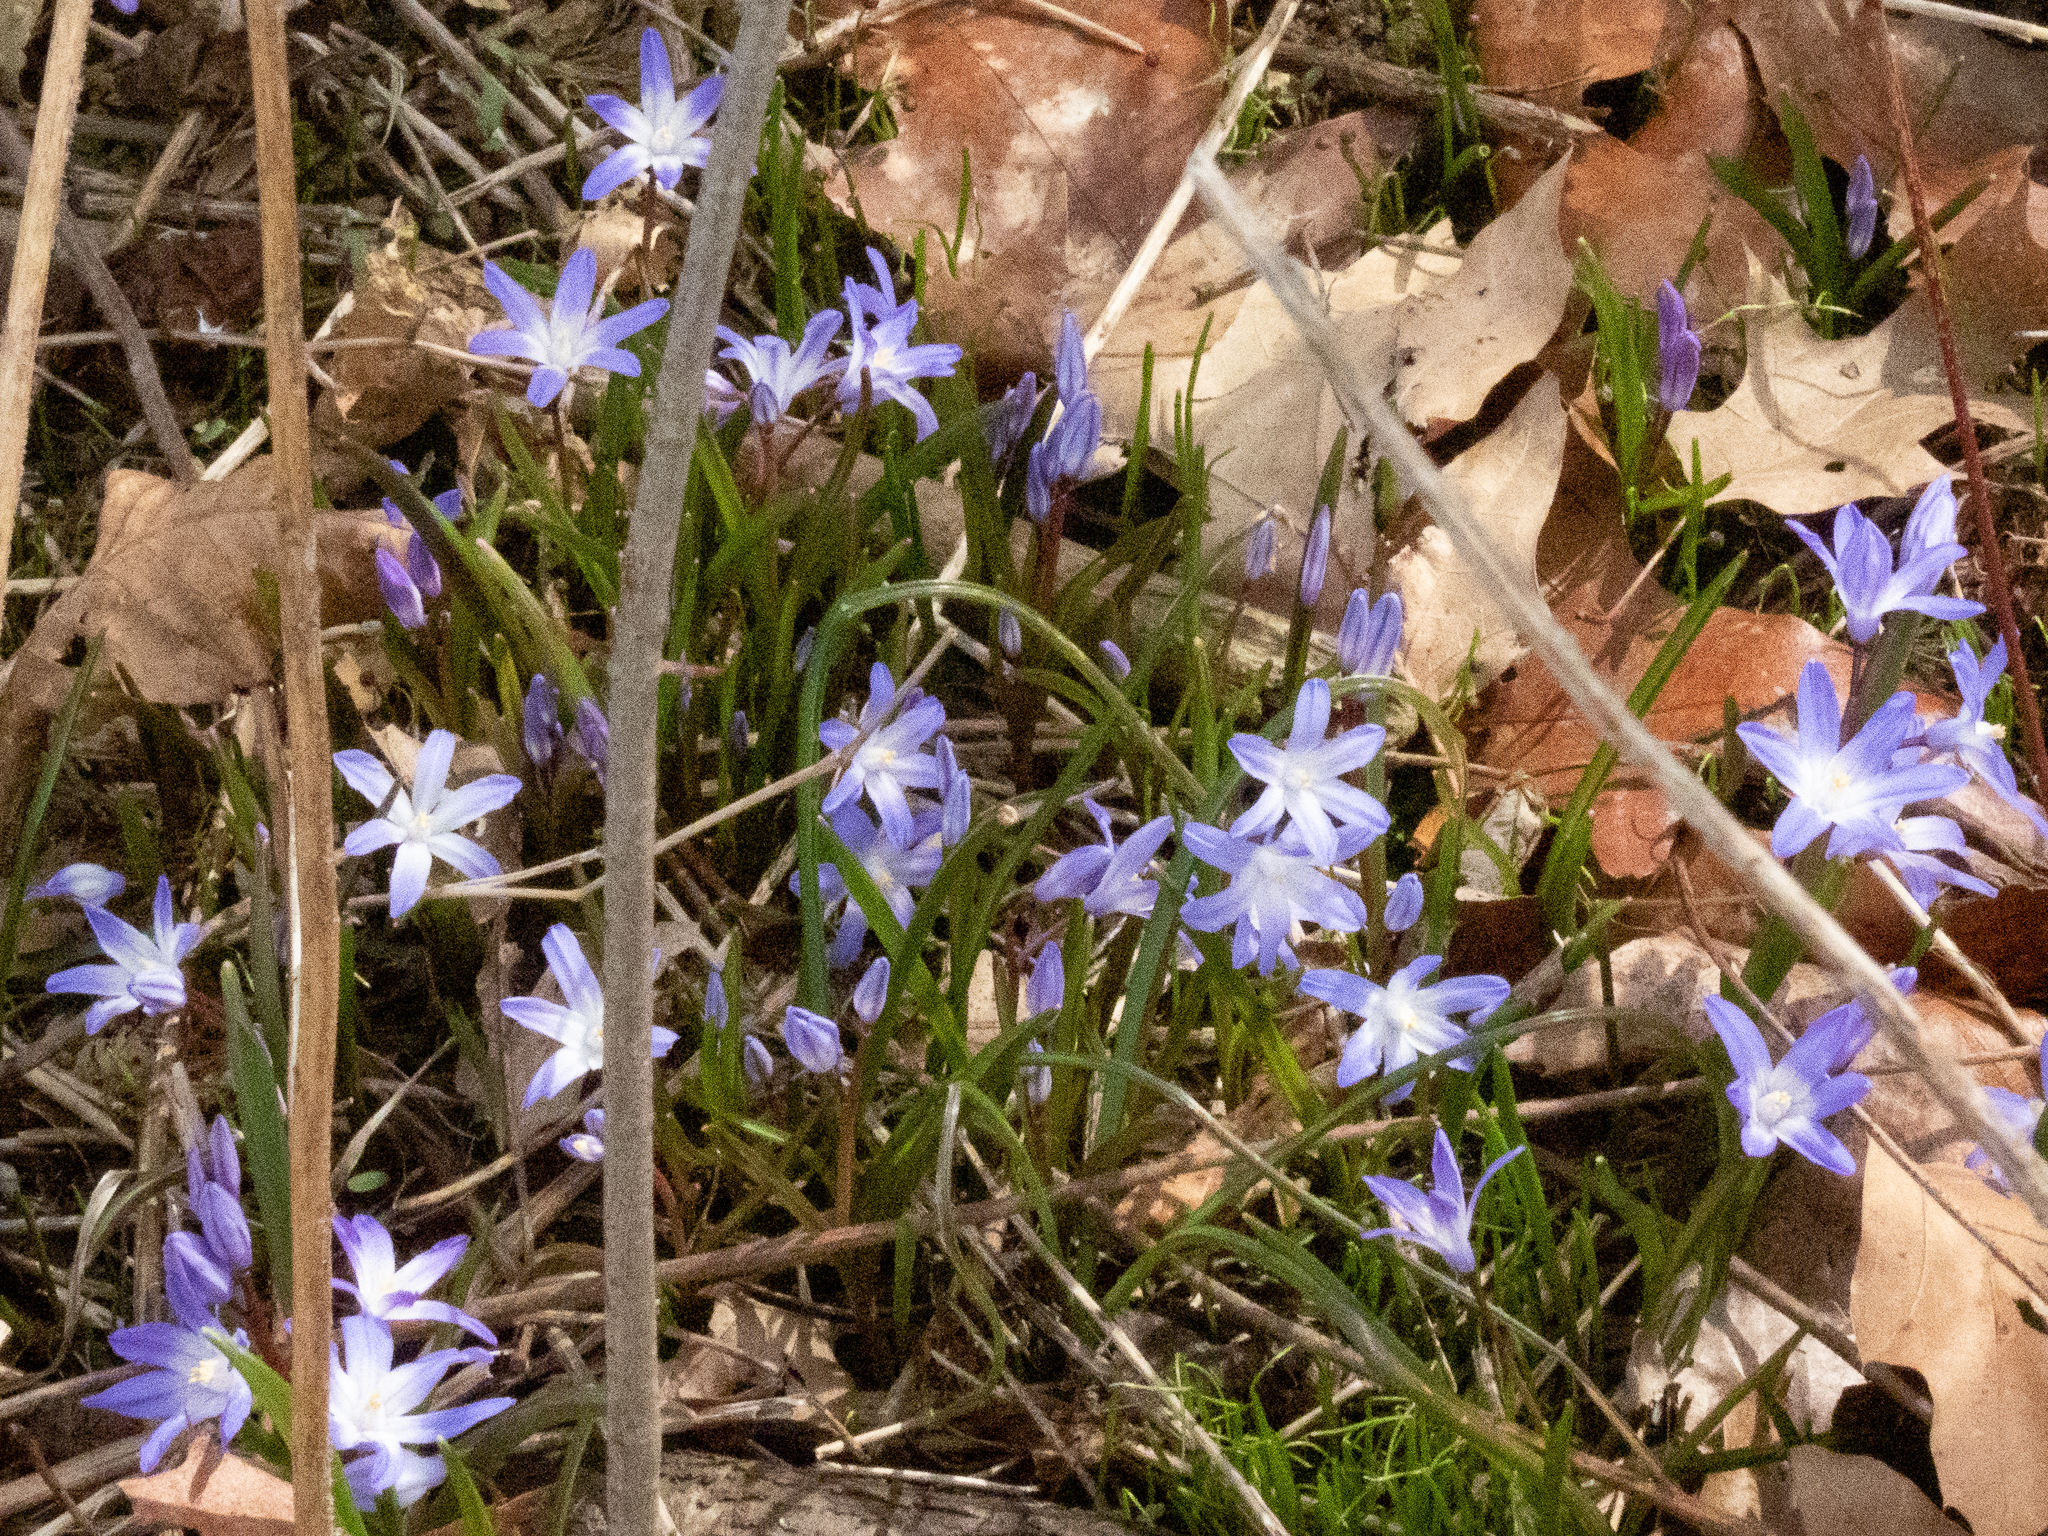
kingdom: Plantae
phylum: Tracheophyta
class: Liliopsida
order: Asparagales
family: Asparagaceae
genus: Scilla
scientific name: Scilla forbesii
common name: Glory-of-the-snow
